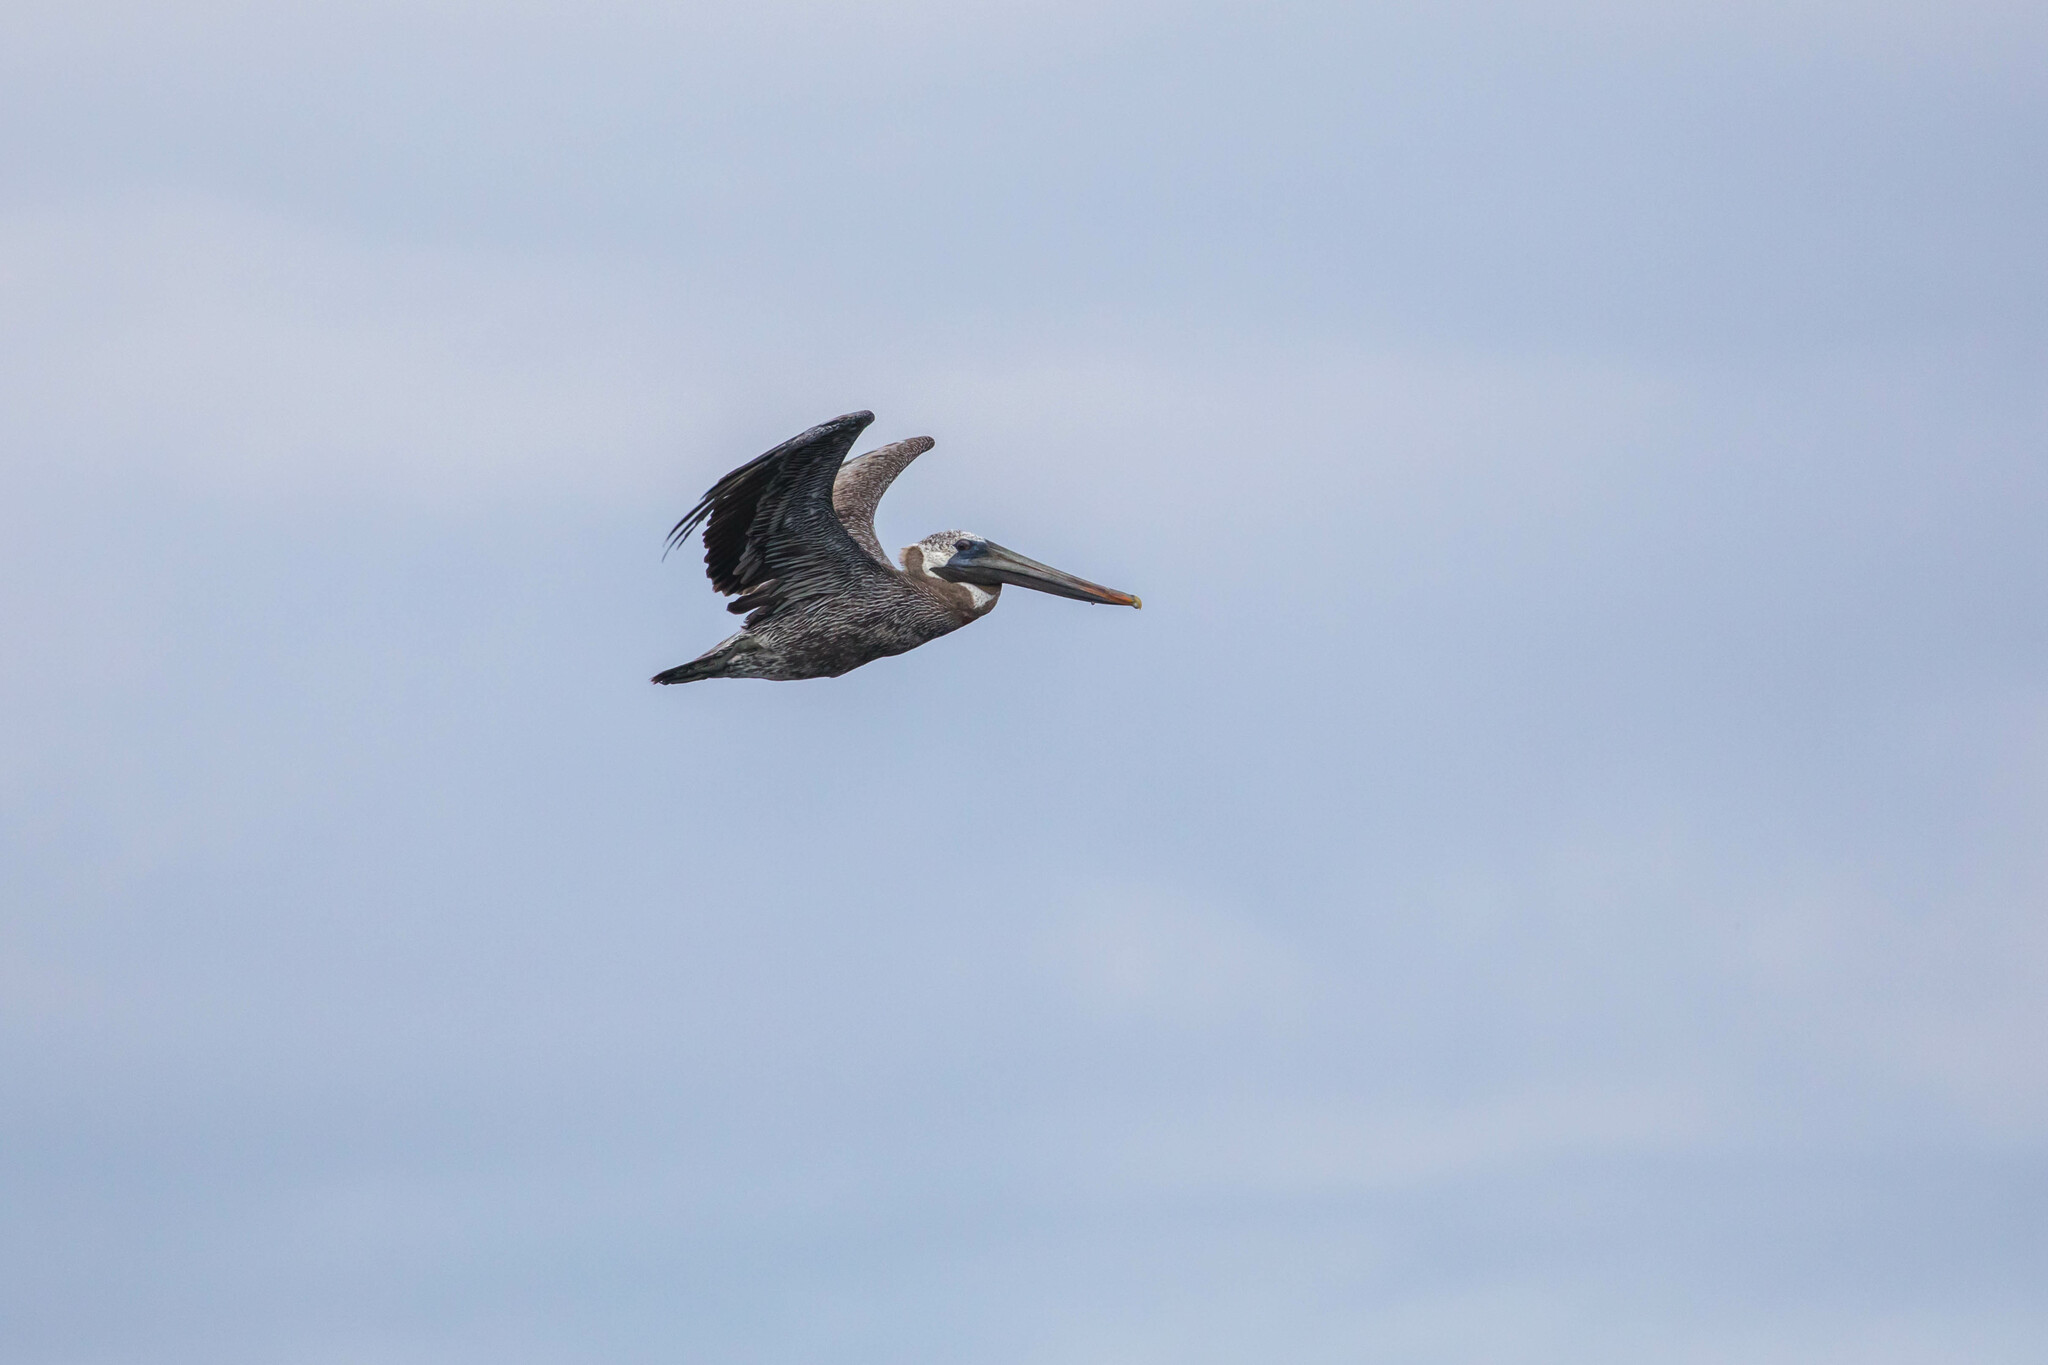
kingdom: Animalia
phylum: Chordata
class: Aves
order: Pelecaniformes
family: Pelecanidae
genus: Pelecanus
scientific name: Pelecanus occidentalis
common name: Brown pelican
